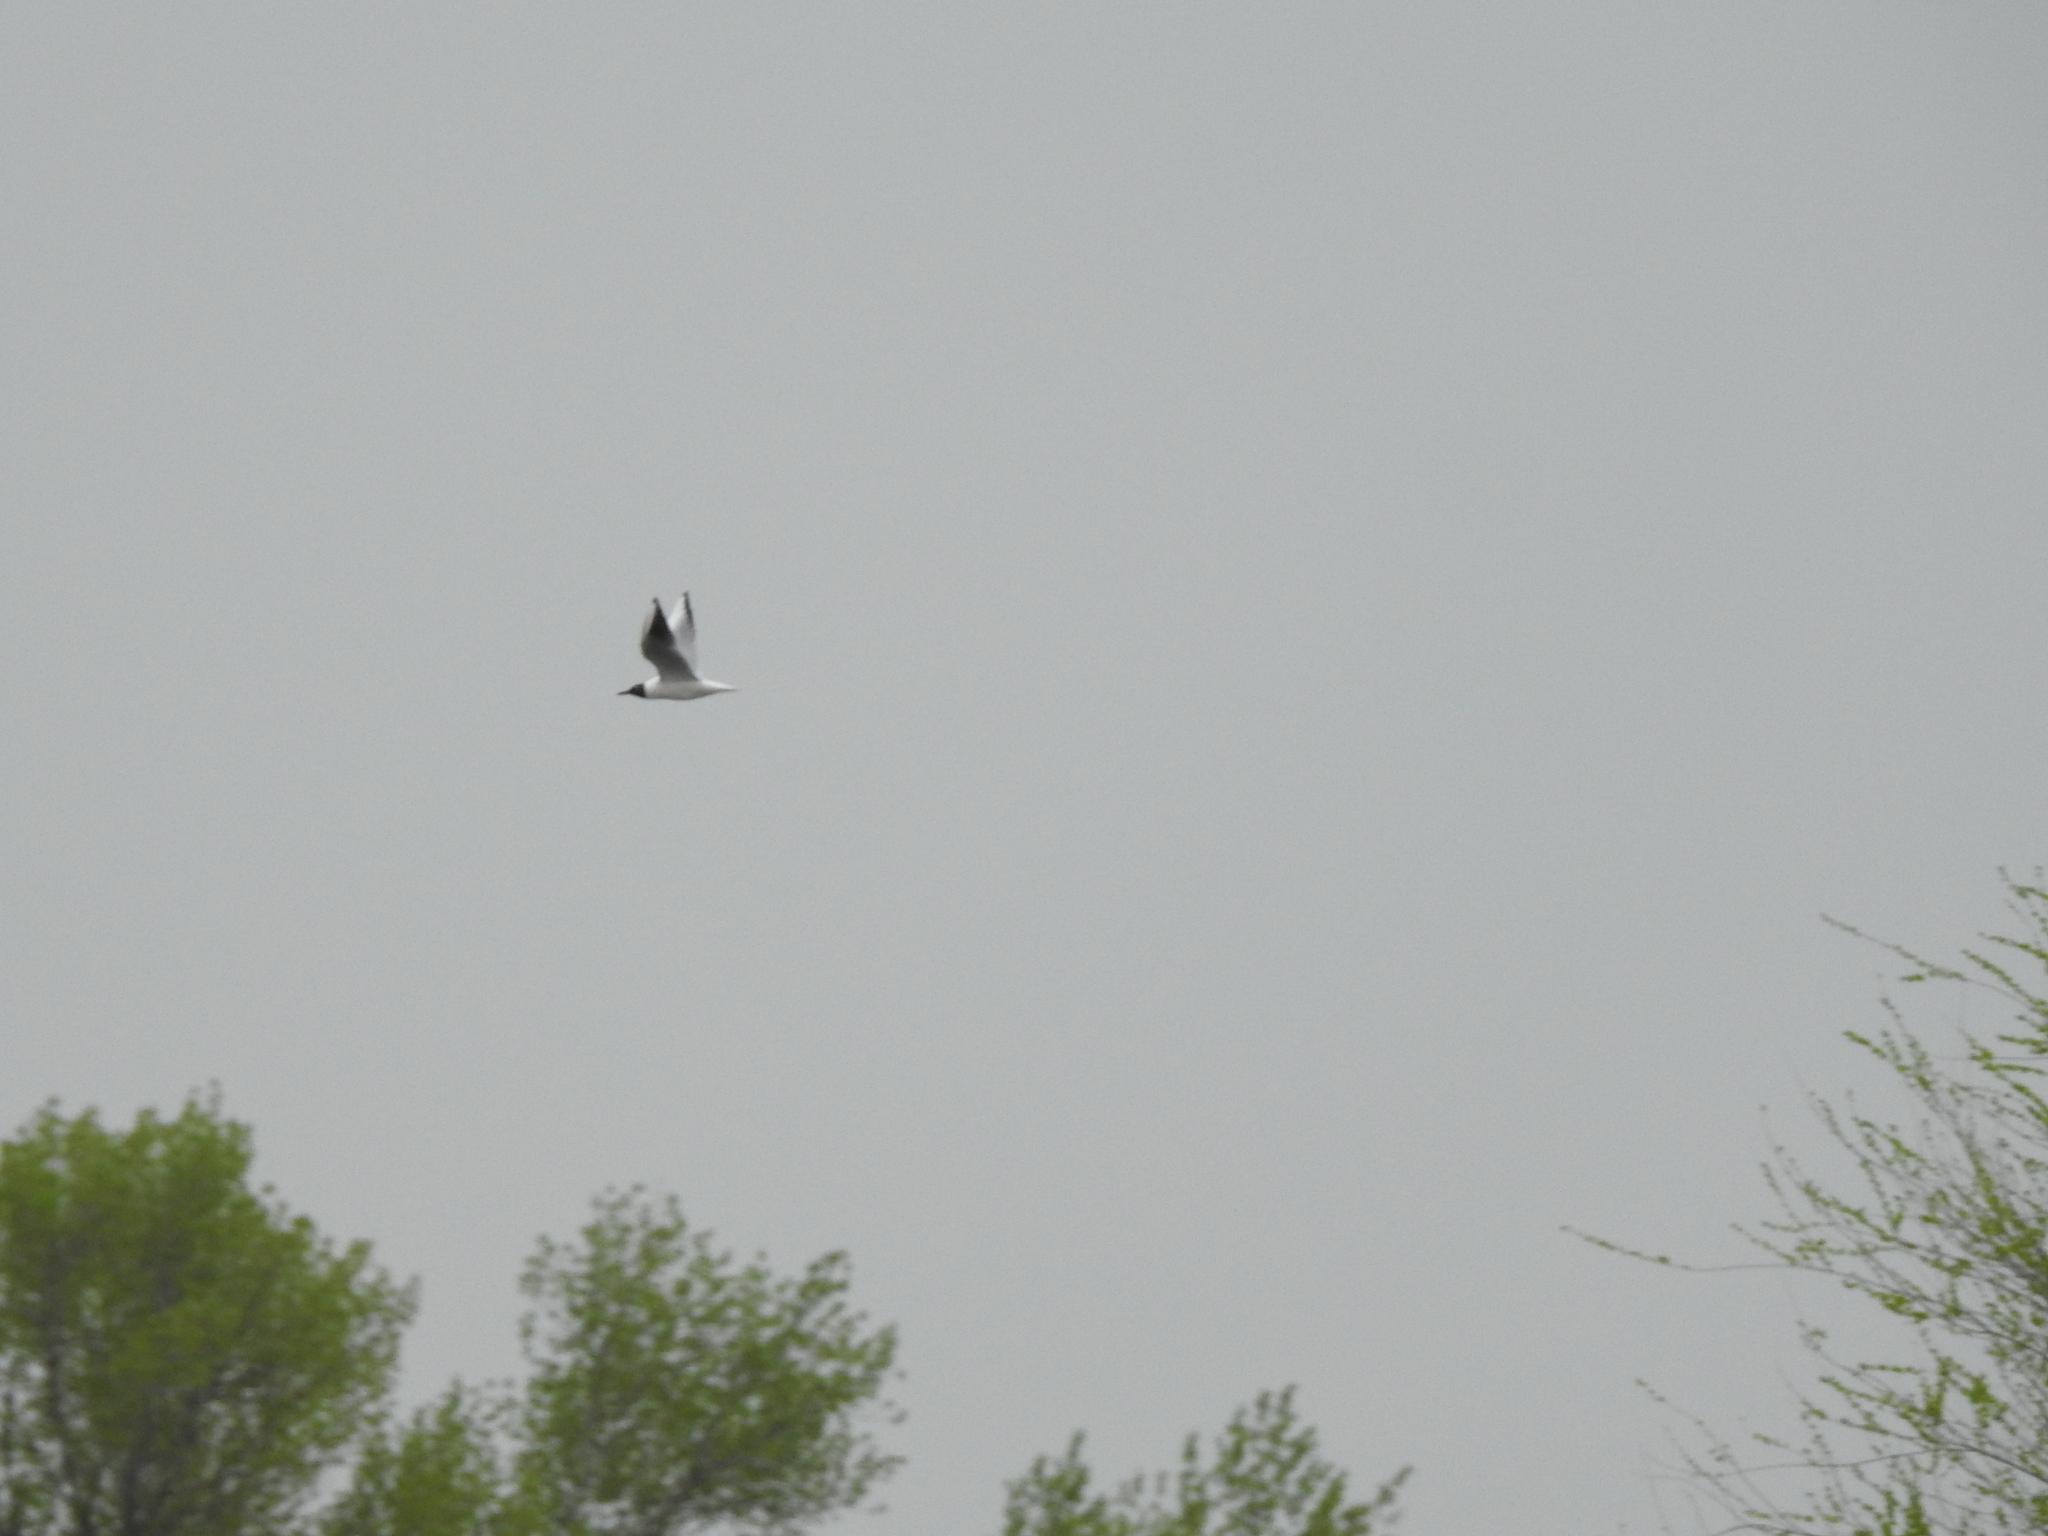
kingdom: Animalia
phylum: Chordata
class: Aves
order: Charadriiformes
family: Laridae
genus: Chroicocephalus
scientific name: Chroicocephalus ridibundus
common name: Black-headed gull
